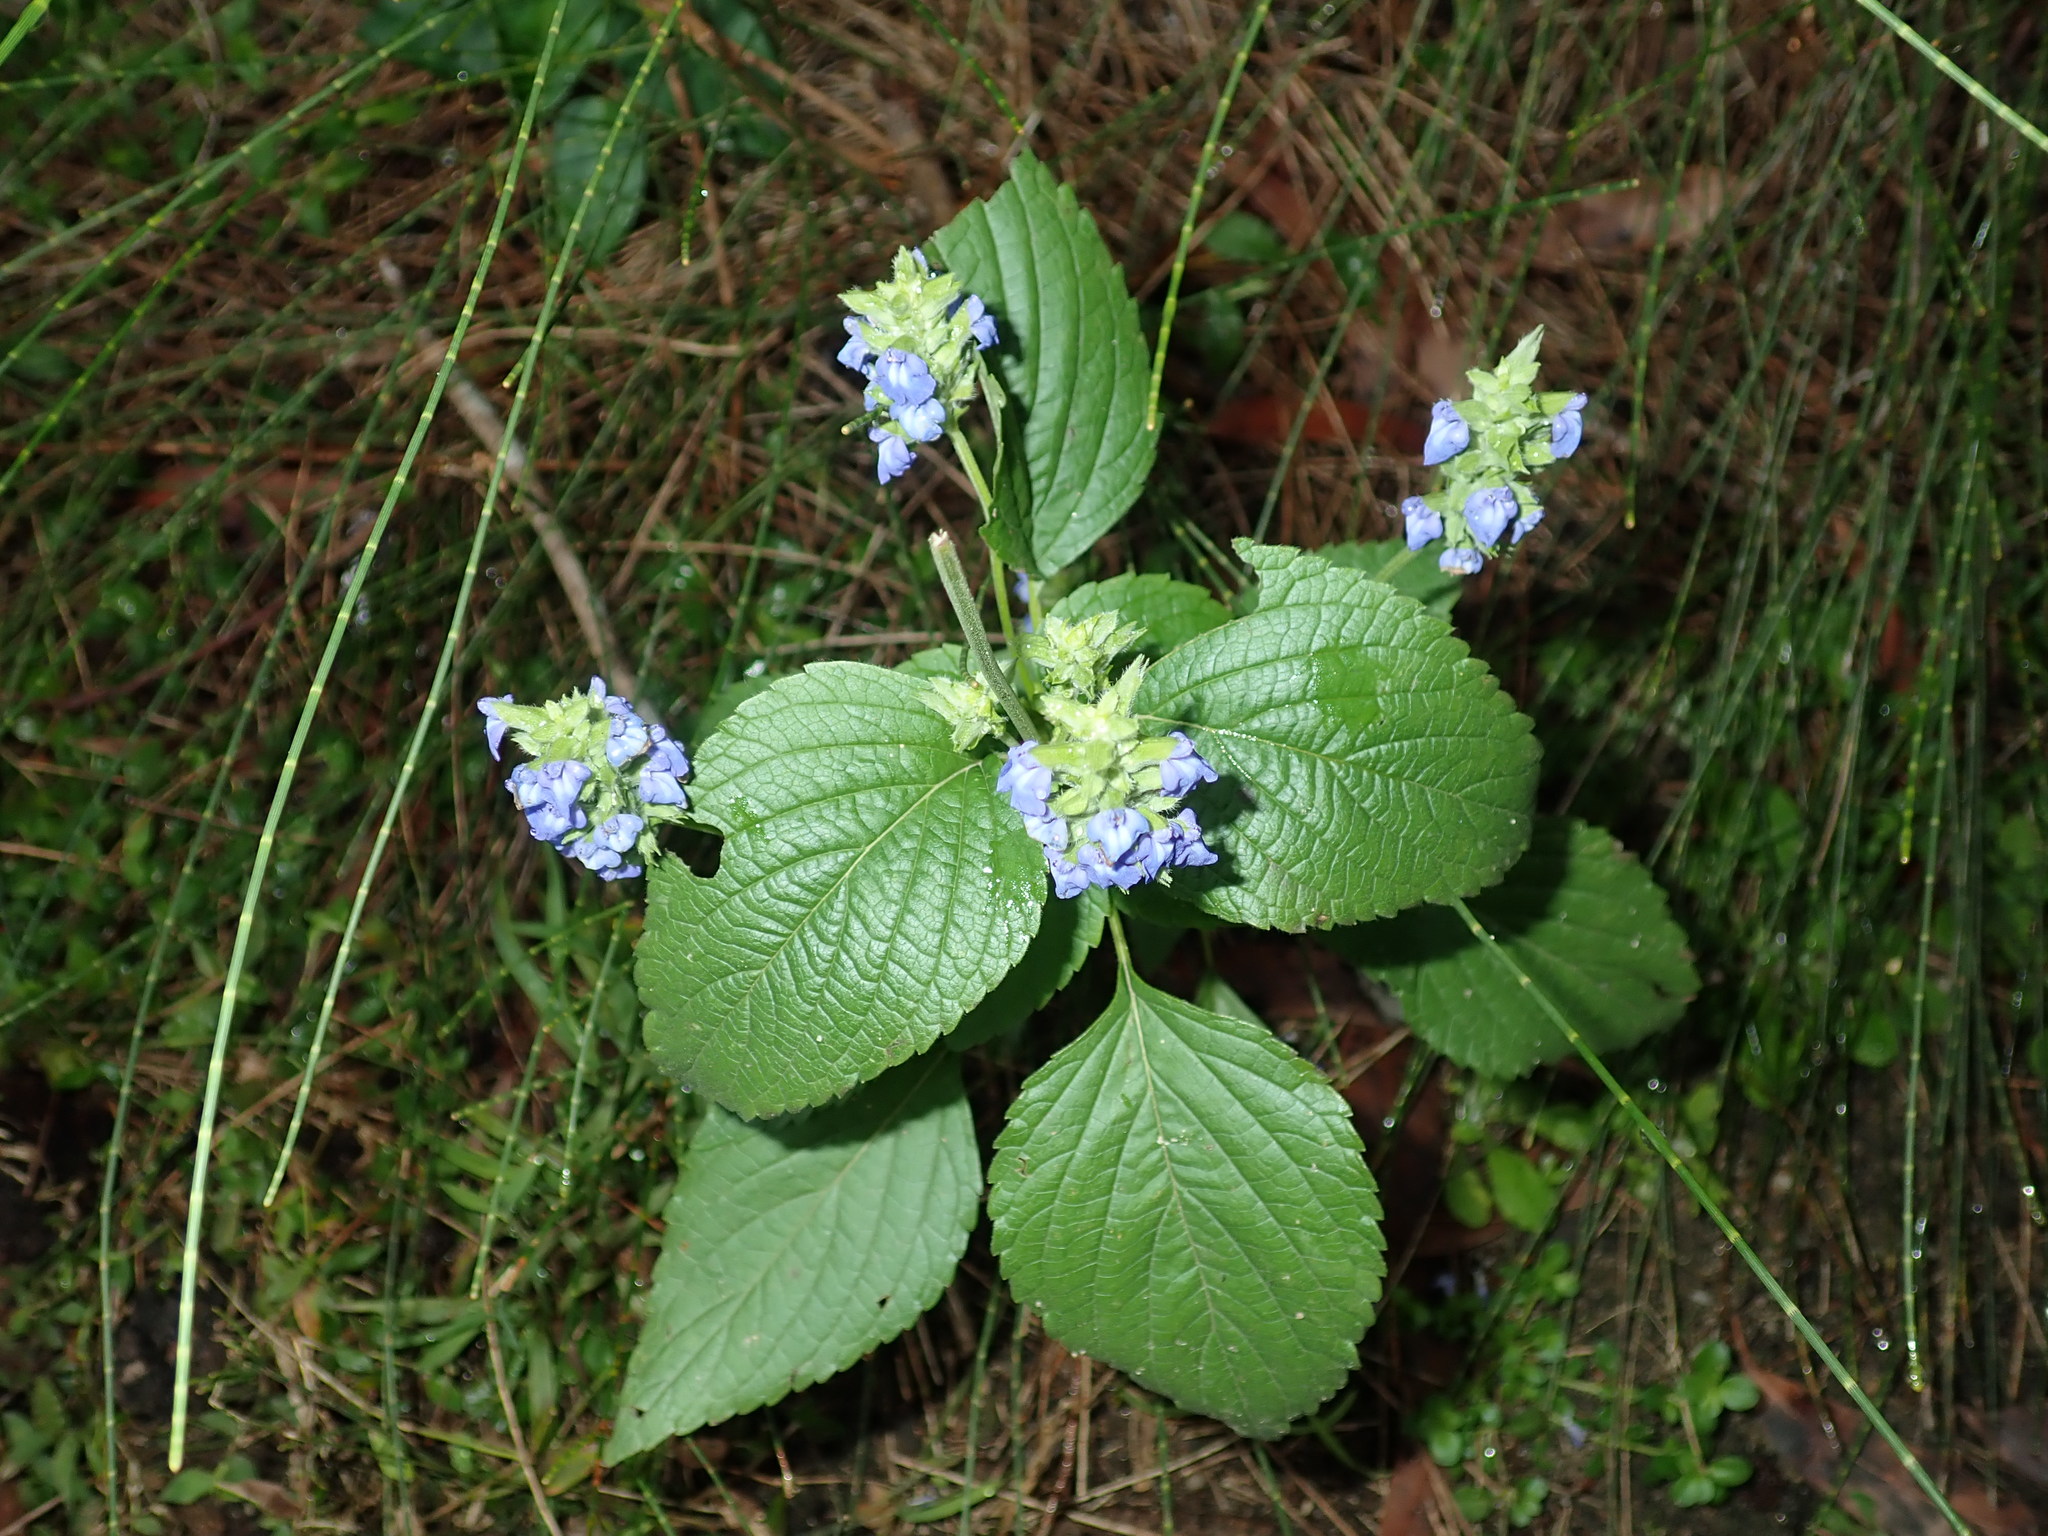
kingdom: Plantae
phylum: Tracheophyta
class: Magnoliopsida
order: Lamiales
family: Lamiaceae
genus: Salvia
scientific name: Salvia hispanica
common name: Chia
